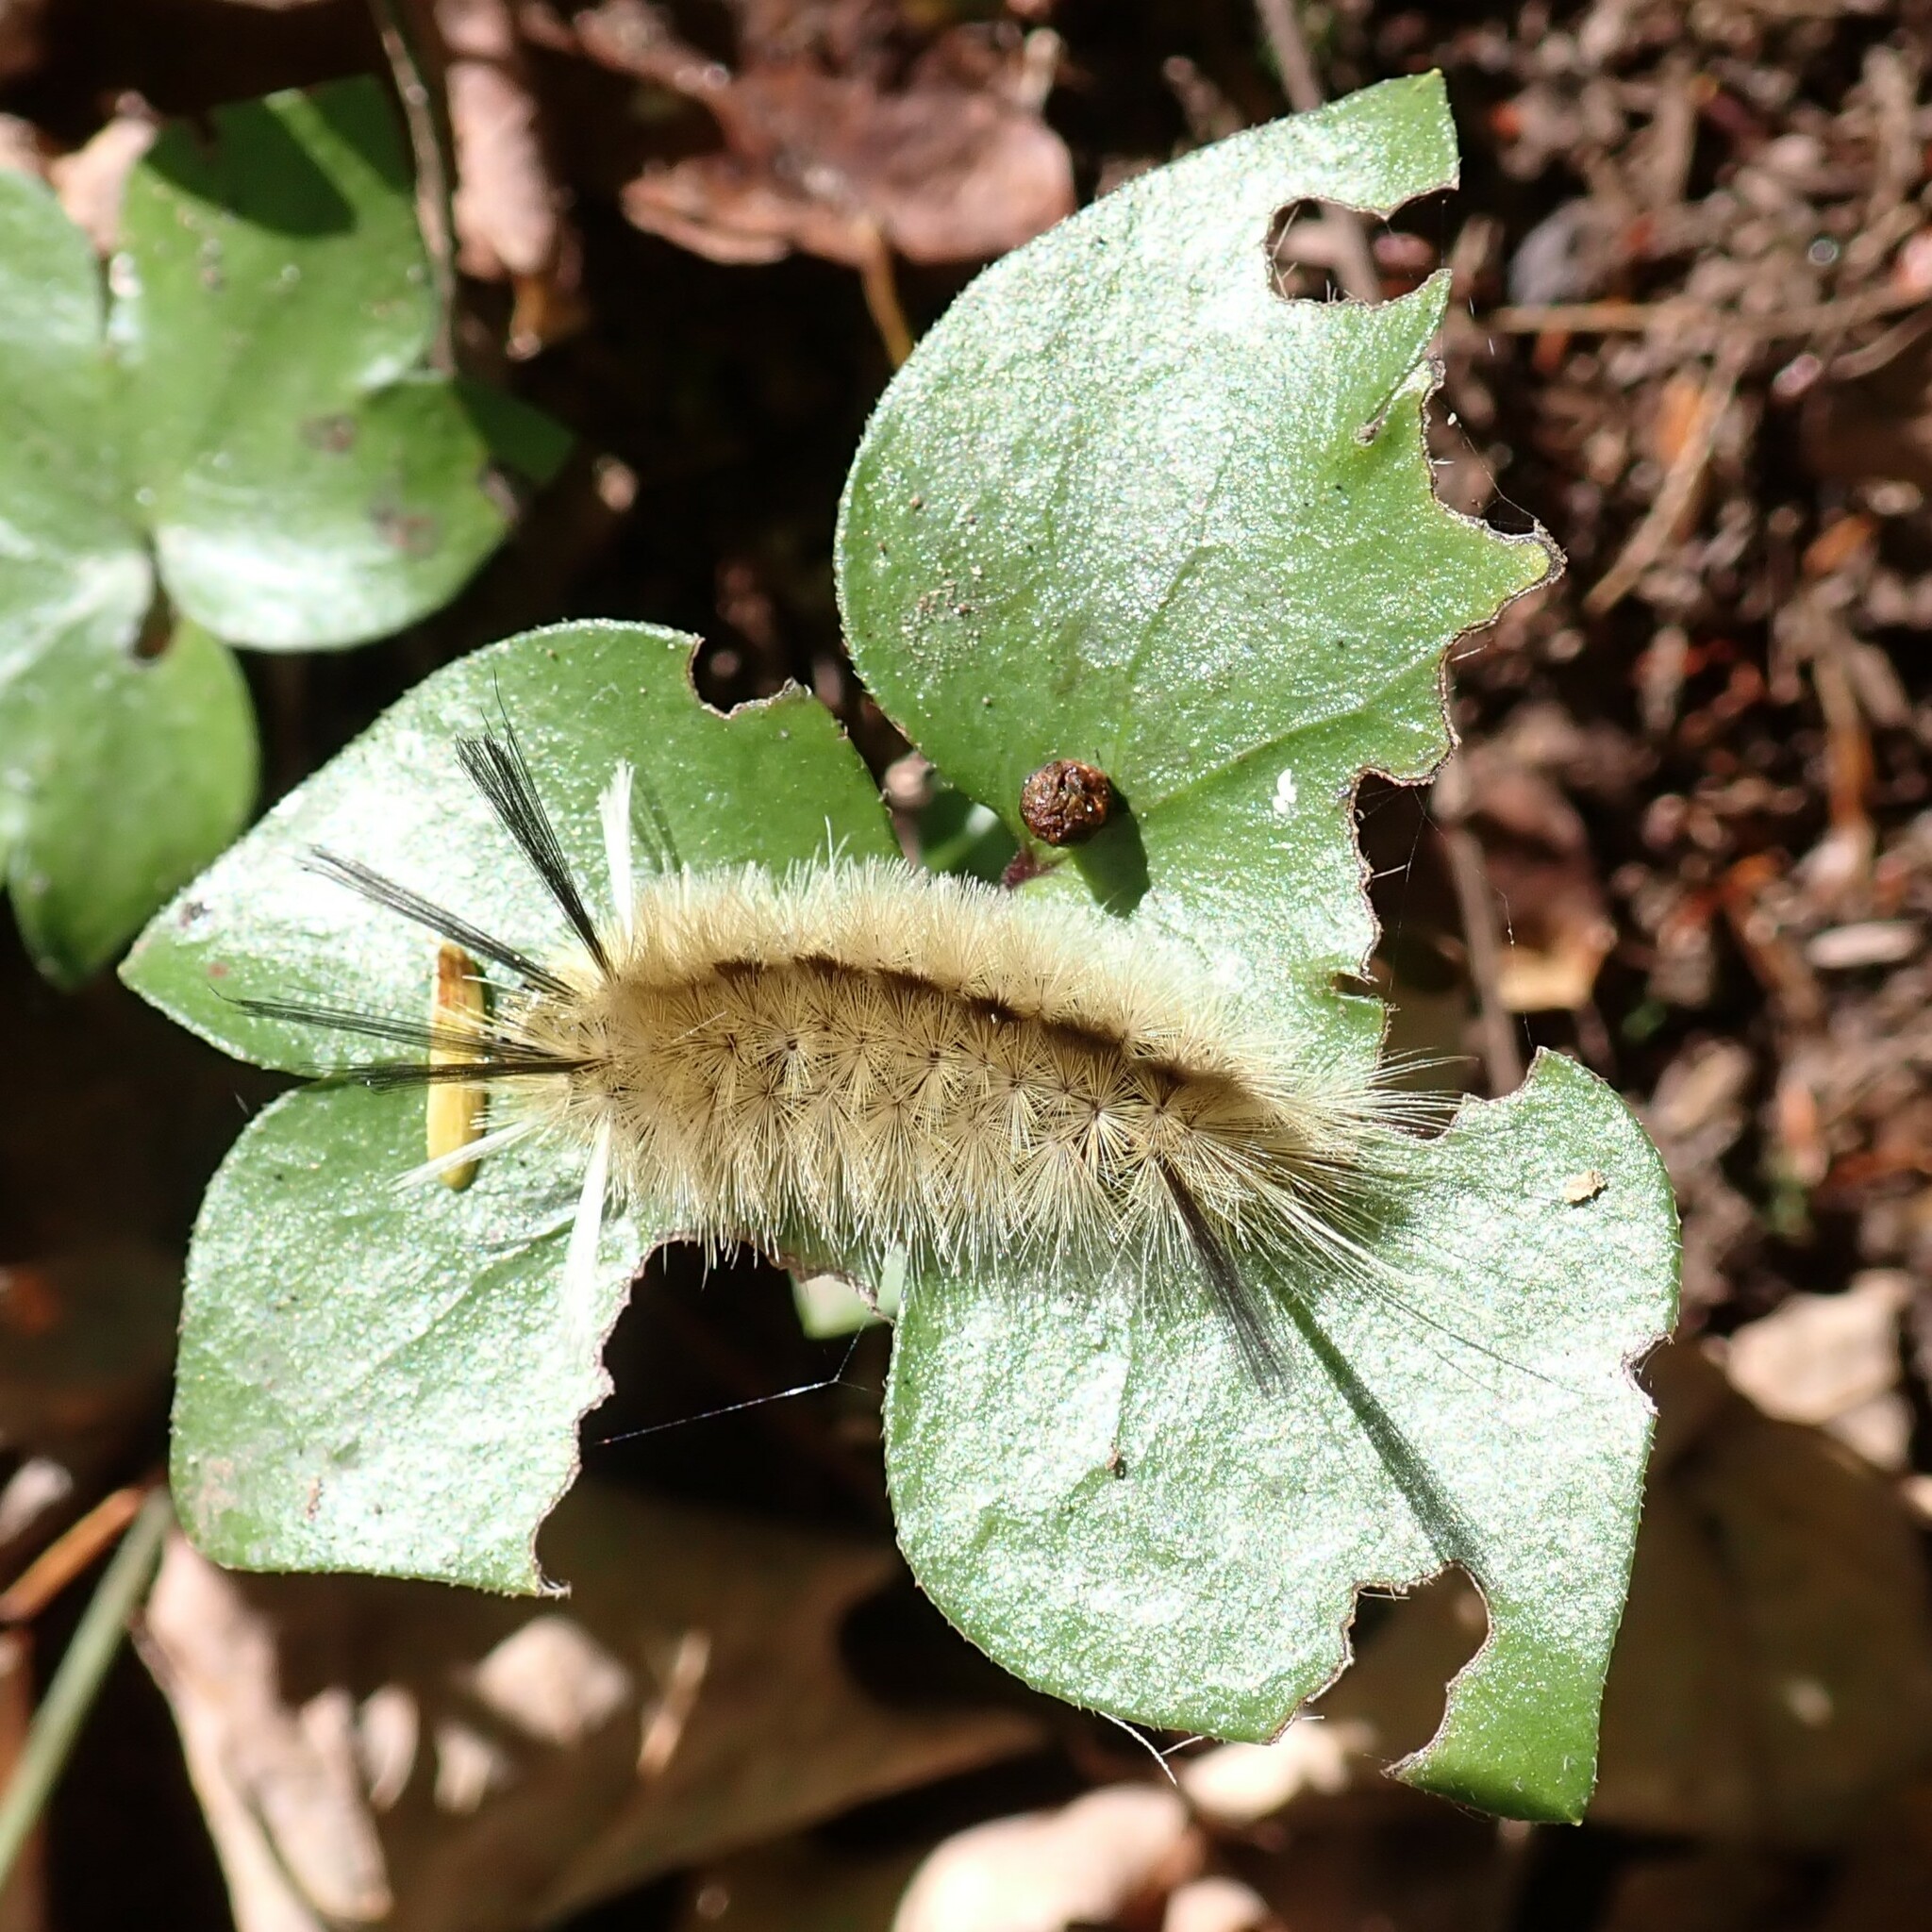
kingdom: Animalia
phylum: Arthropoda
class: Insecta
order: Lepidoptera
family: Erebidae
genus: Halysidota
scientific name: Halysidota tessellaris
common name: Banded tussock moth
